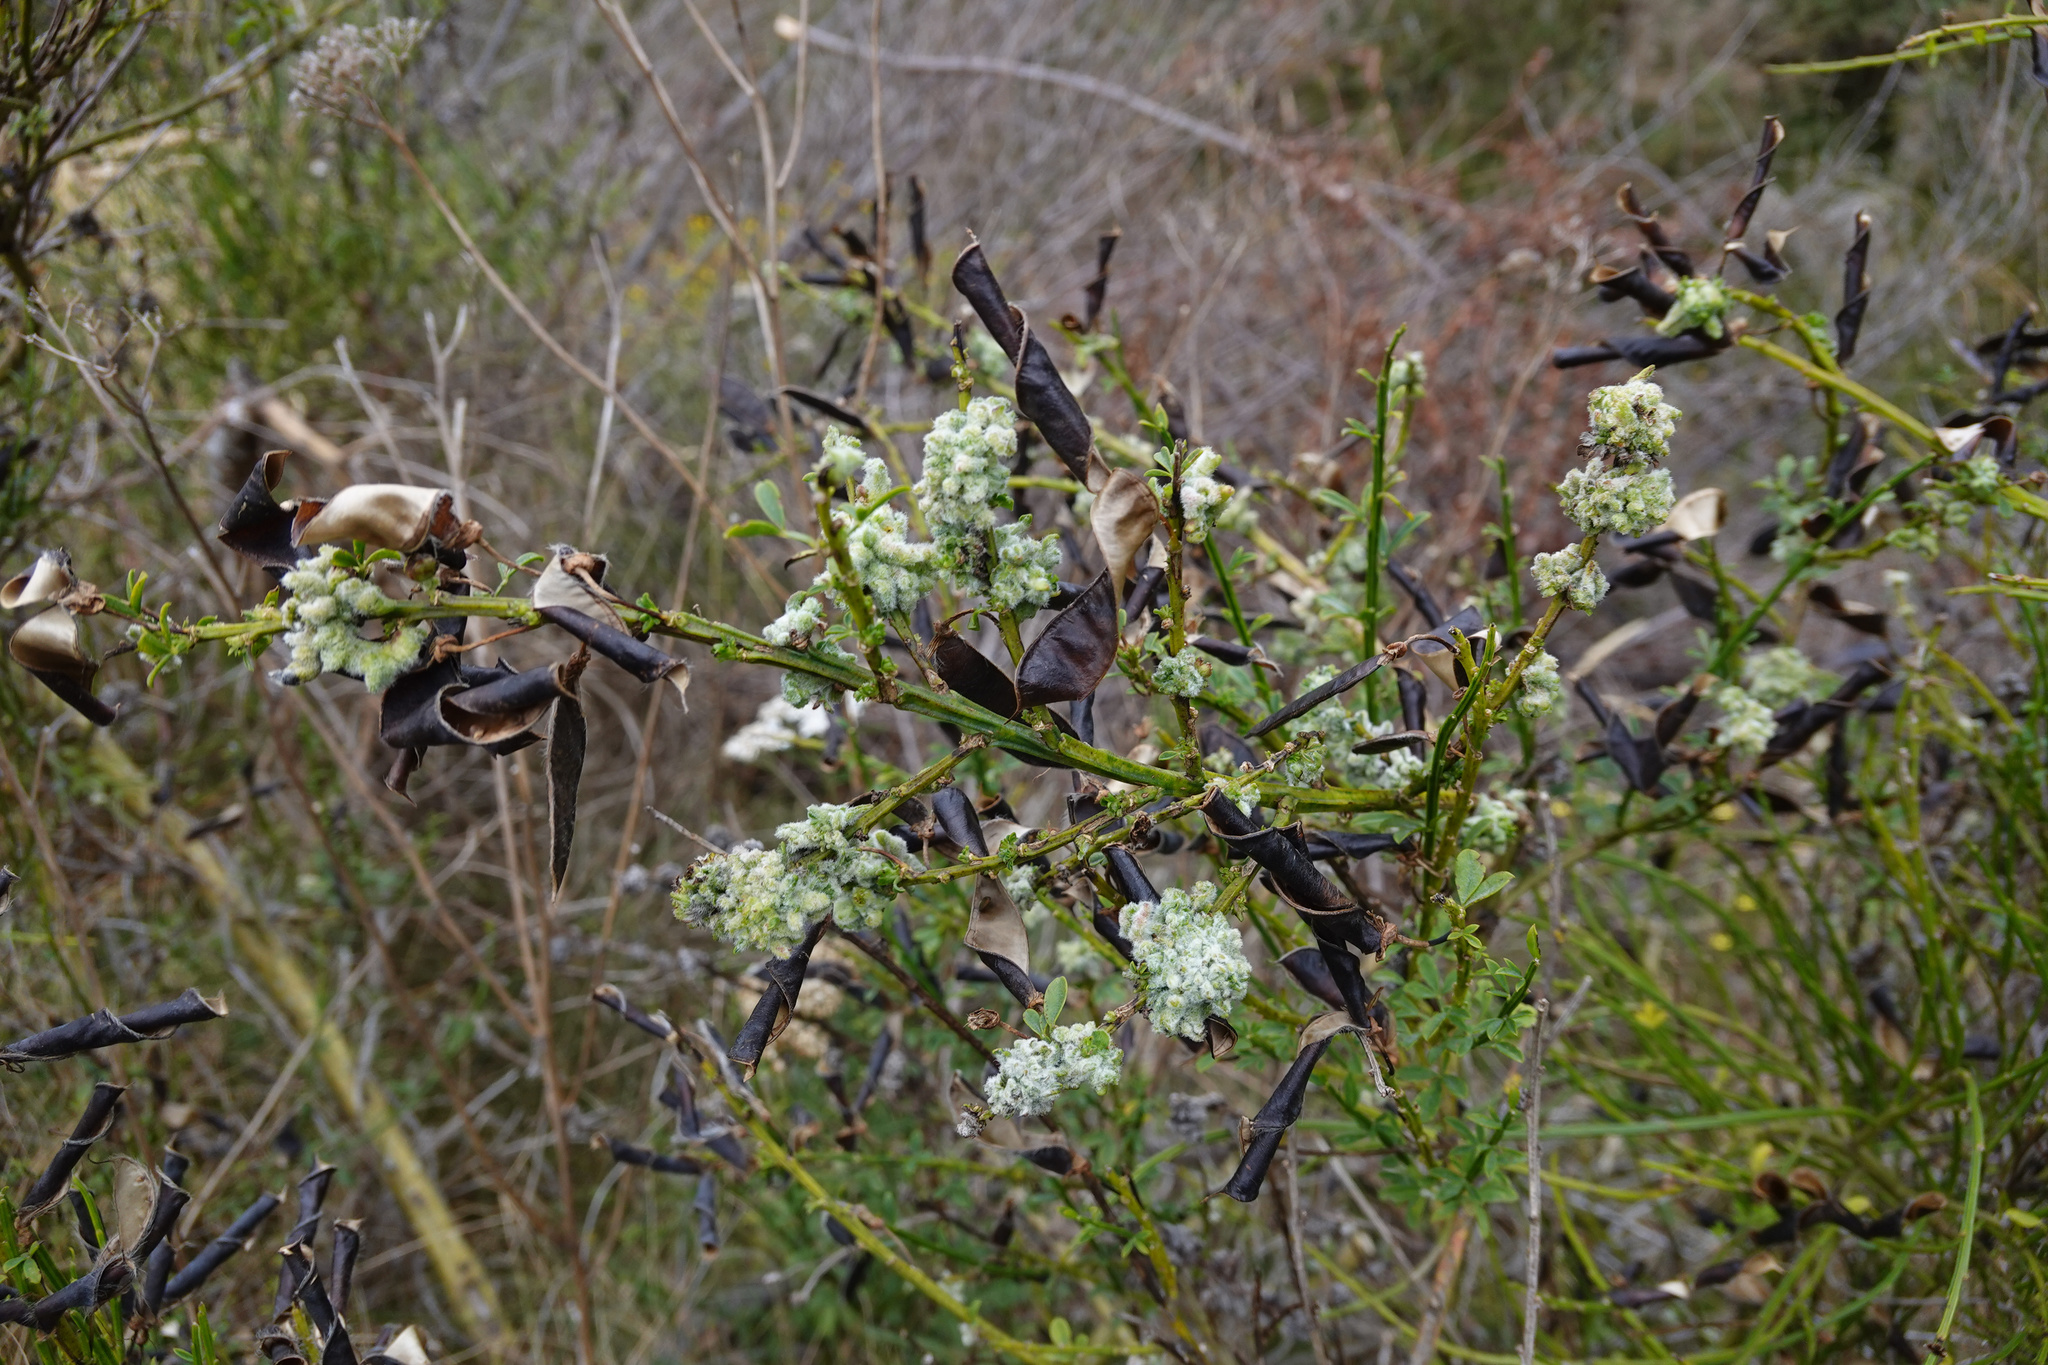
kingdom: Animalia
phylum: Arthropoda
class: Arachnida
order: Trombidiformes
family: Eriophyidae
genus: Aceria
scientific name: Aceria genistae
